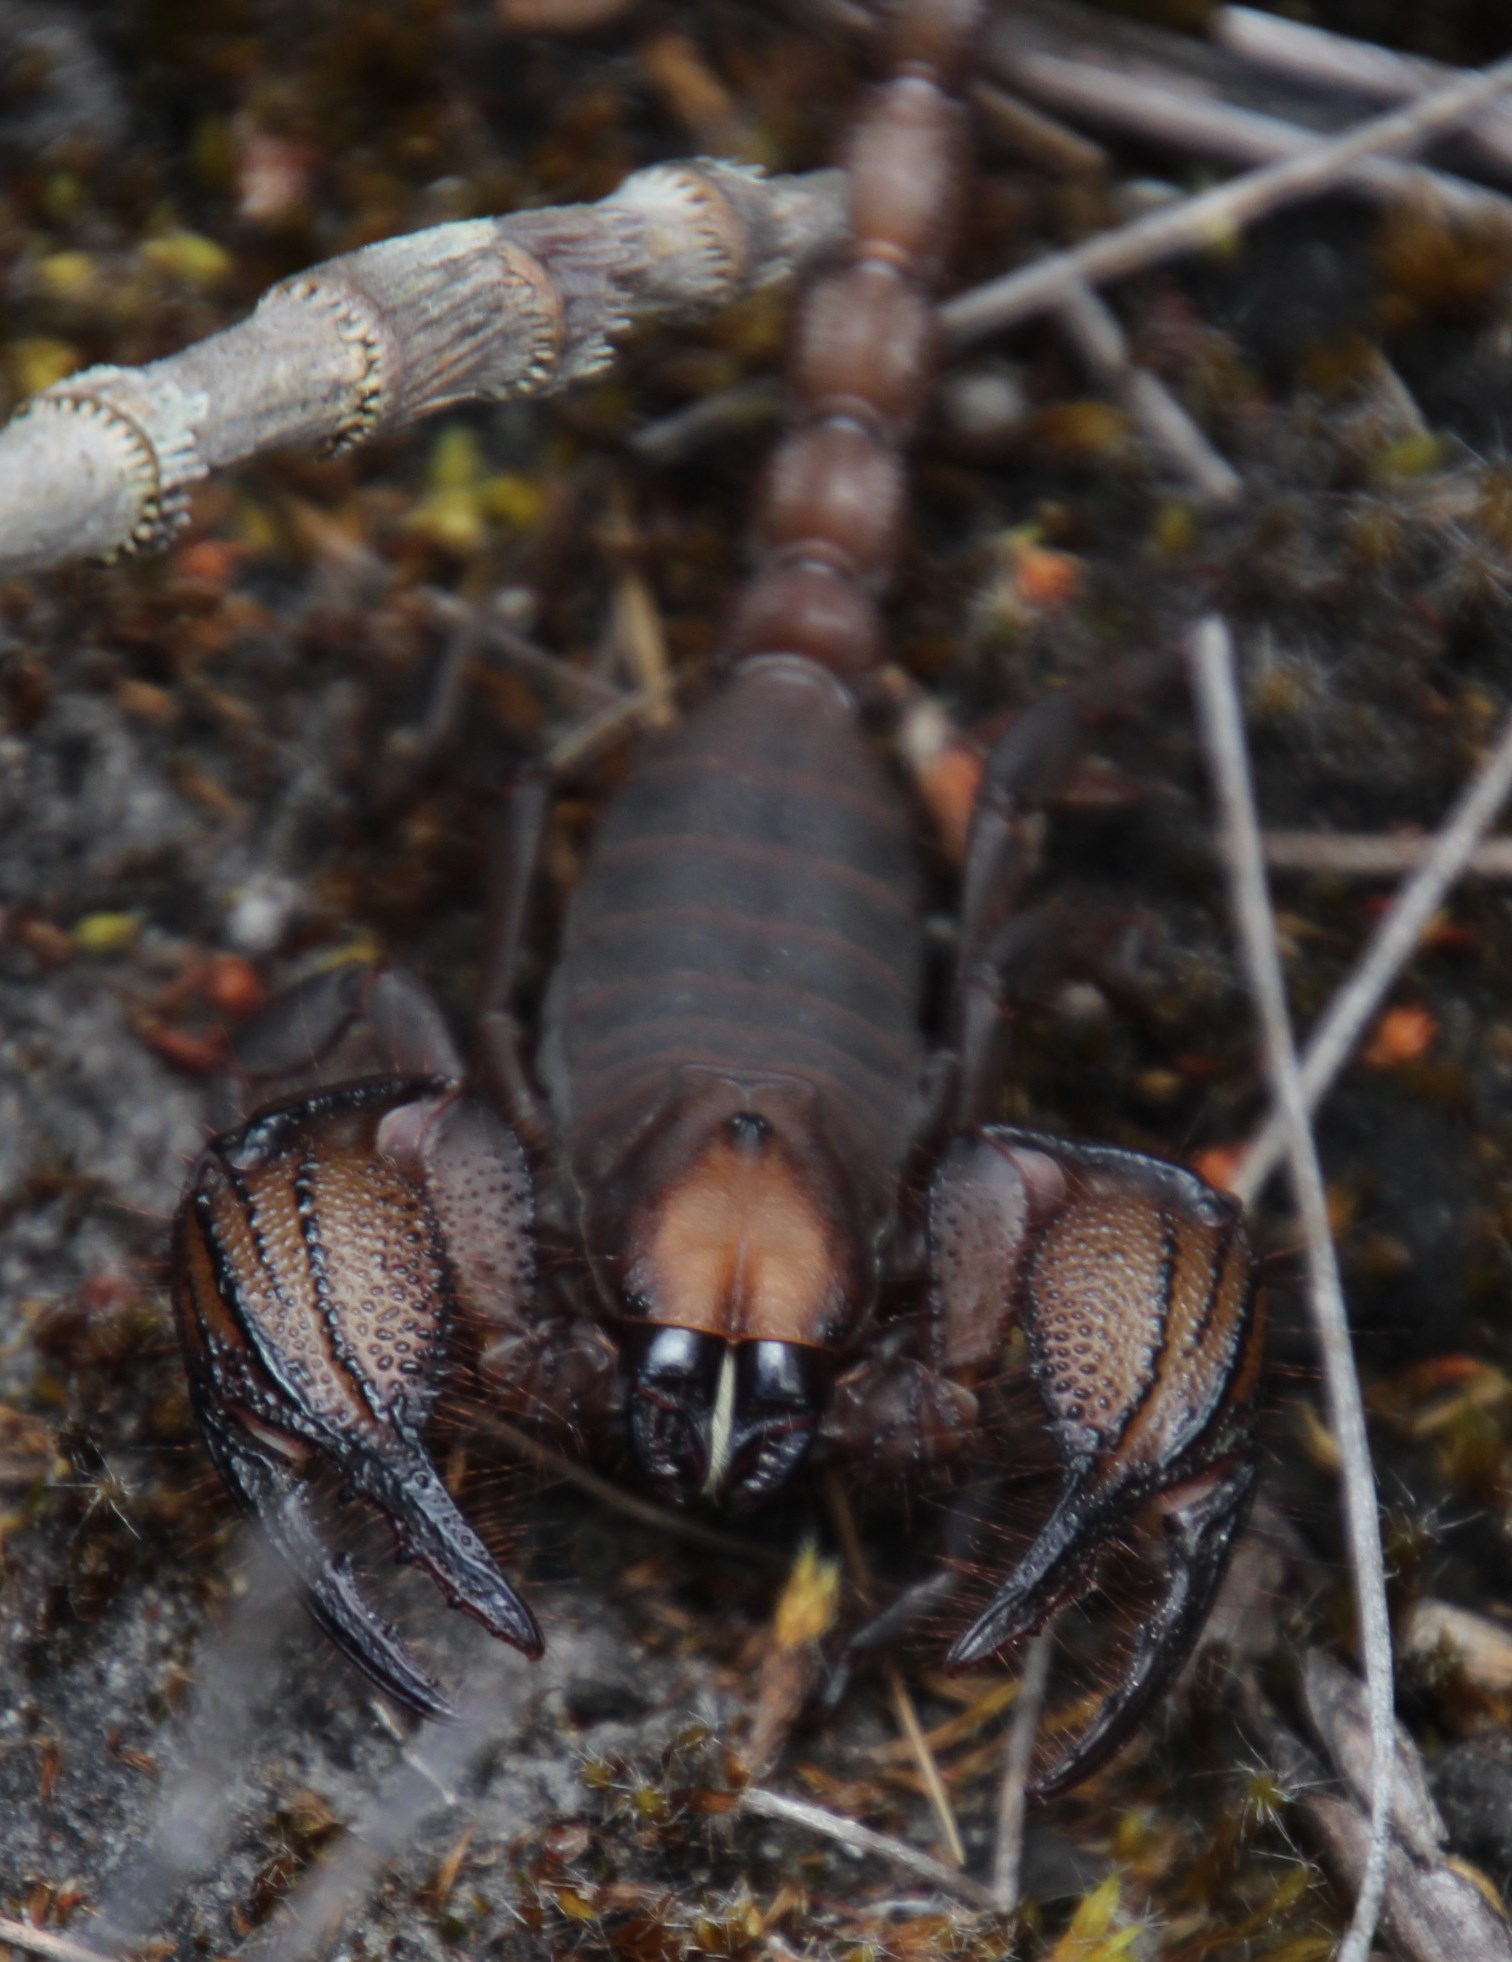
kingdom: Animalia
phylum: Arthropoda
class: Arachnida
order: Scorpiones
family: Scorpionidae
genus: Opistophthalmus
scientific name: Opistophthalmus macer
